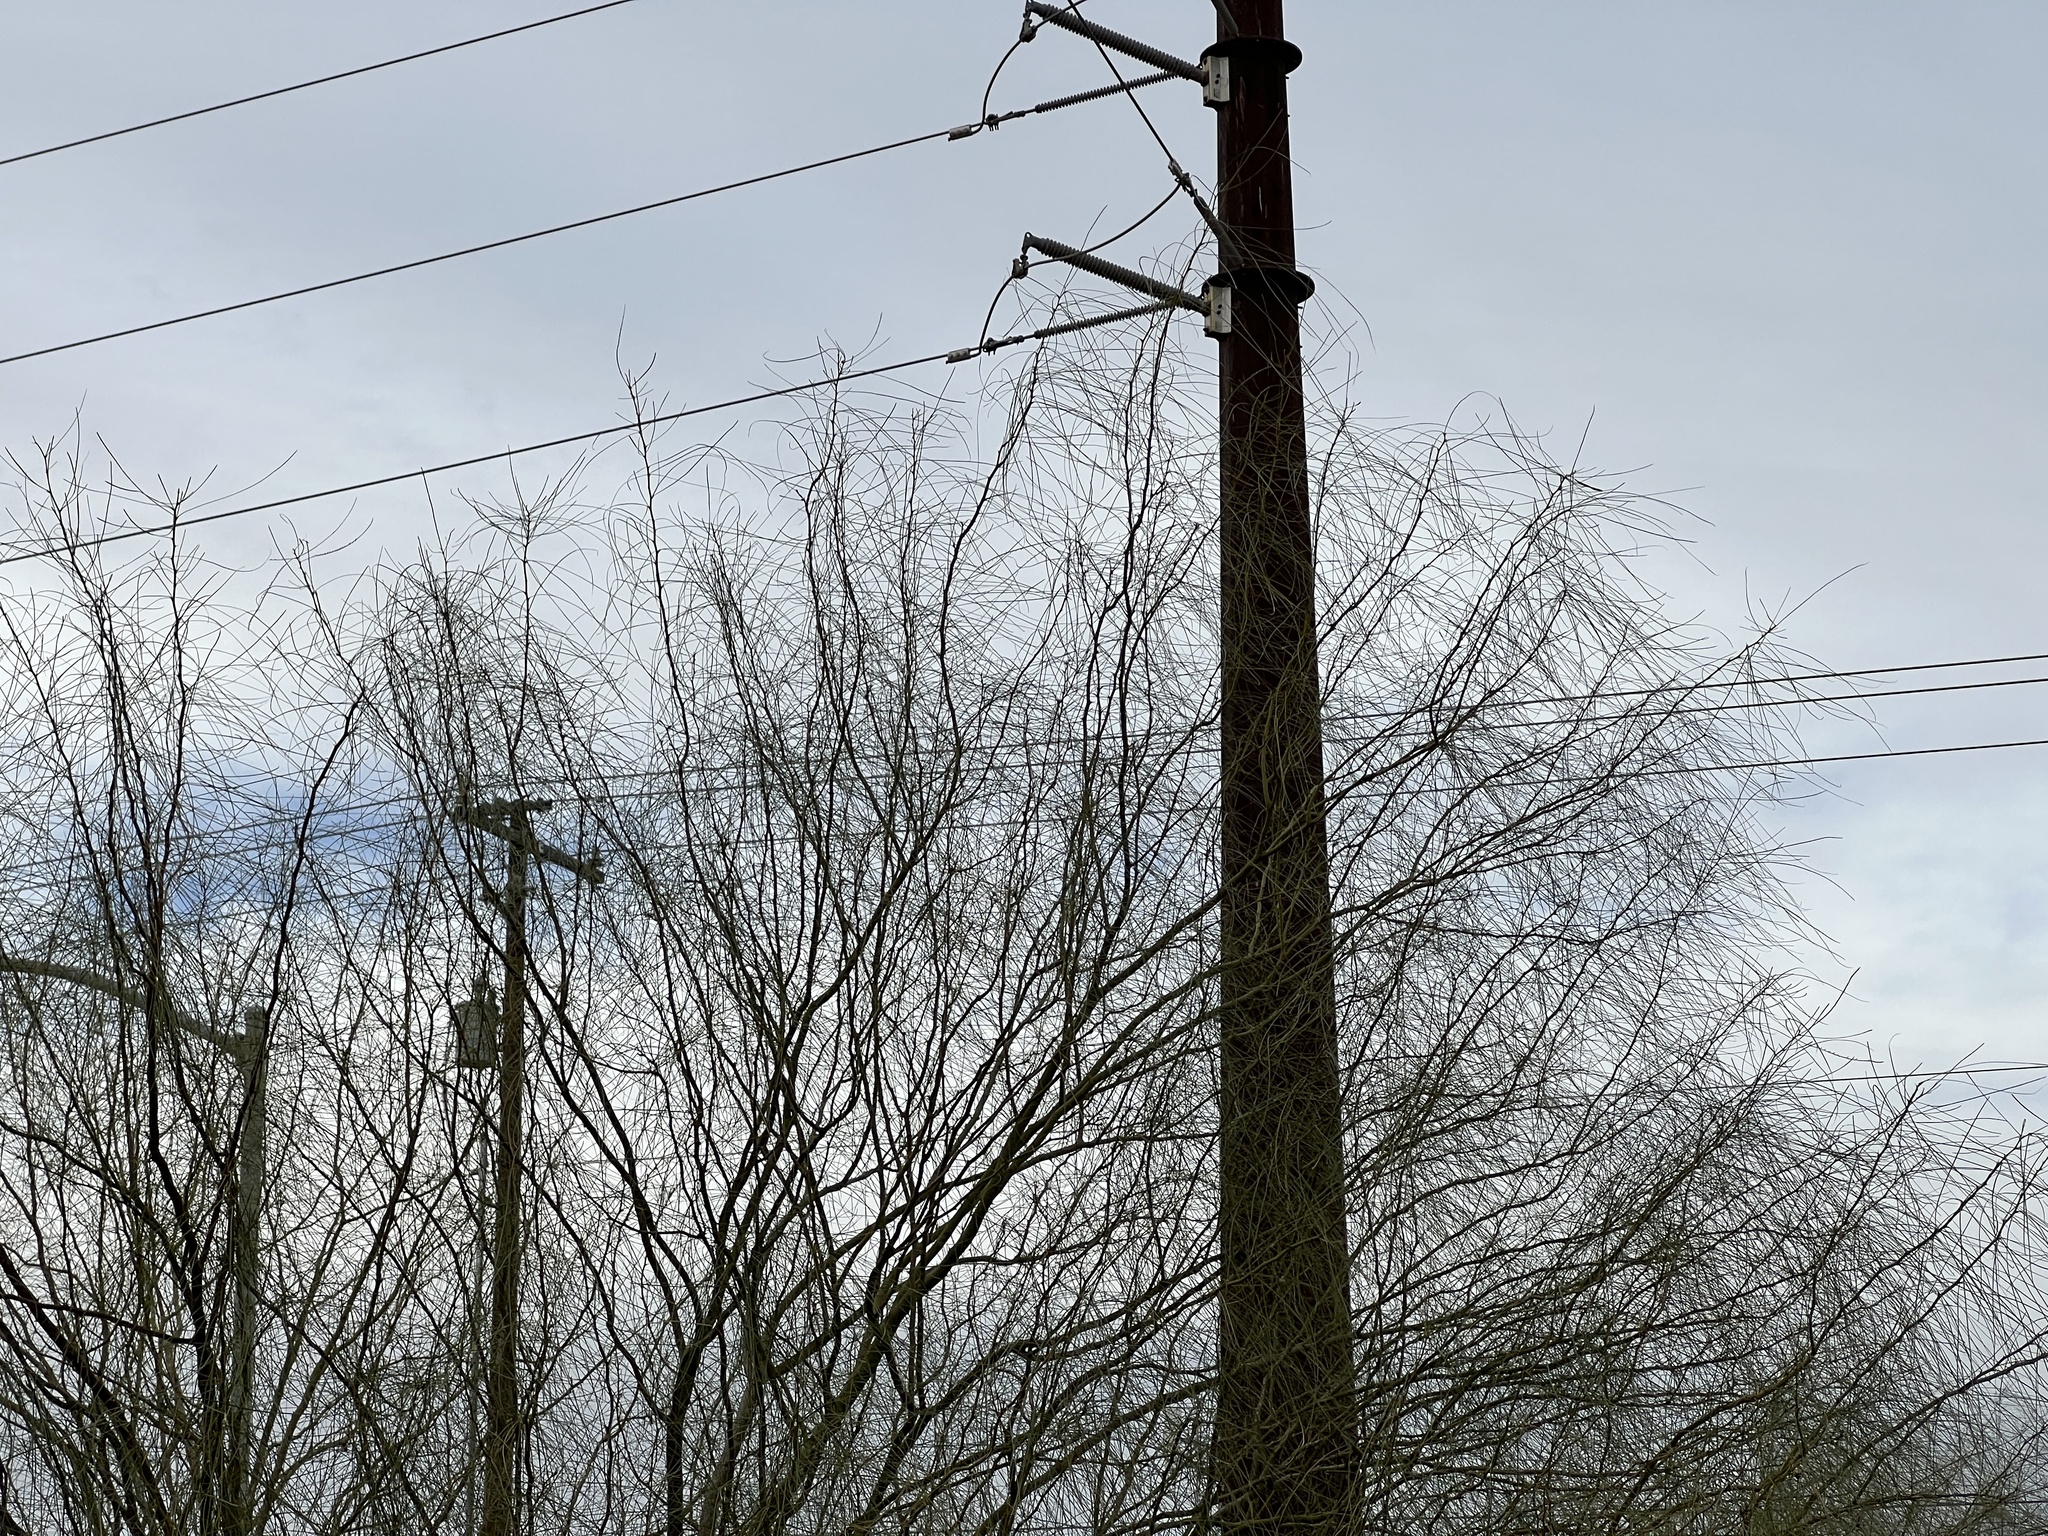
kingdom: Plantae
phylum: Tracheophyta
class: Magnoliopsida
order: Fabales
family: Fabaceae
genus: Parkinsonia
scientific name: Parkinsonia aculeata
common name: Jerusalem thorn
